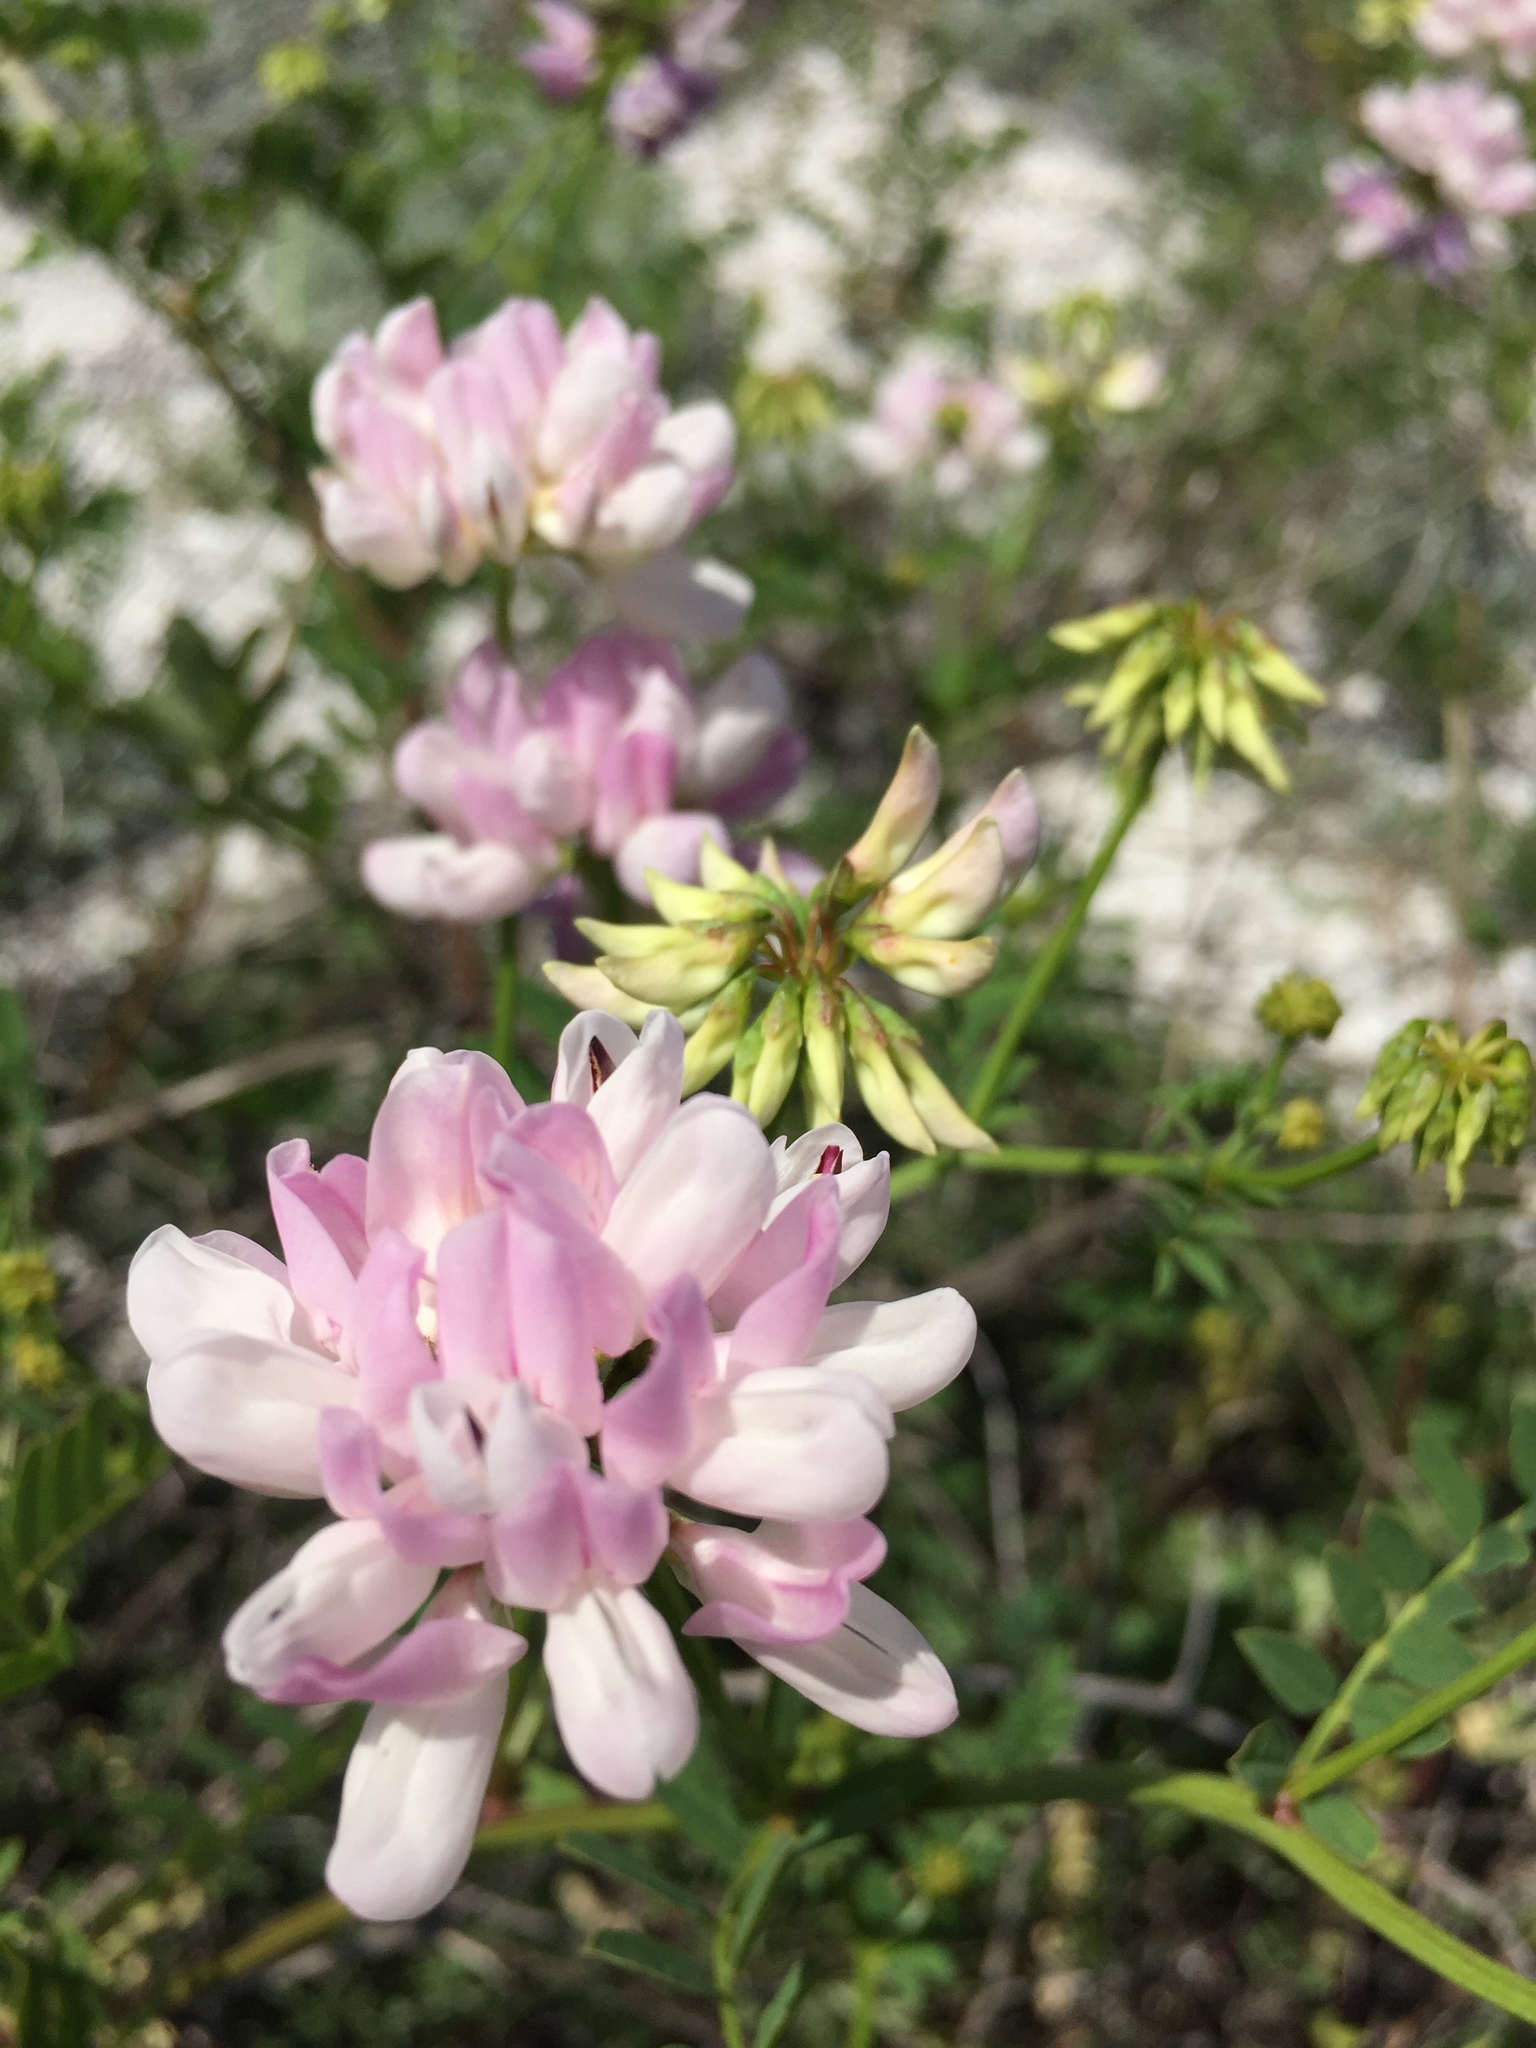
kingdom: Plantae
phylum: Tracheophyta
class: Magnoliopsida
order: Fabales
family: Fabaceae
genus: Coronilla
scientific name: Coronilla varia
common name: Crownvetch
